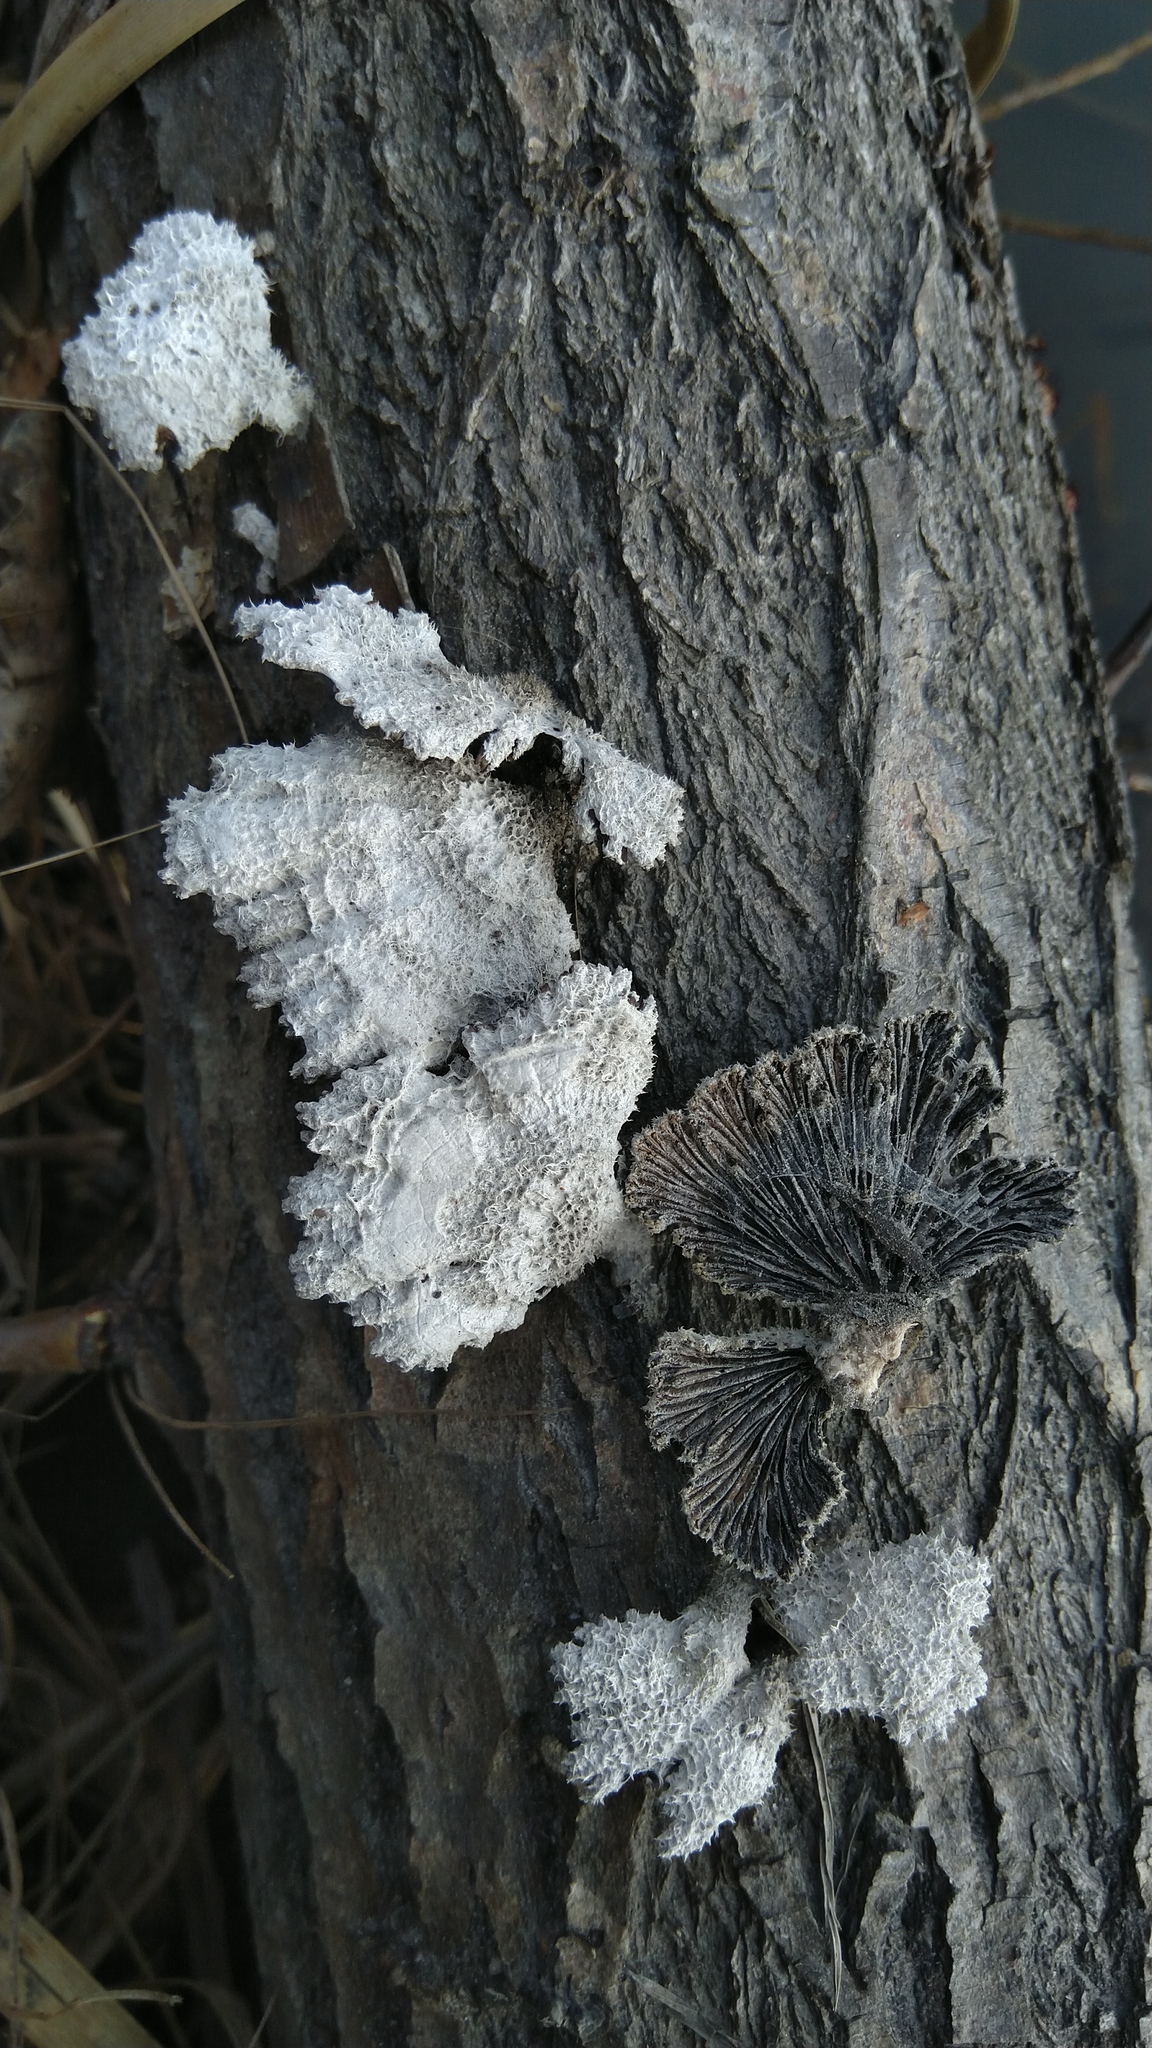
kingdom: Fungi
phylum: Basidiomycota
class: Agaricomycetes
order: Agaricales
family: Schizophyllaceae
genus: Schizophyllum
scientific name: Schizophyllum commune
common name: Common porecrust
